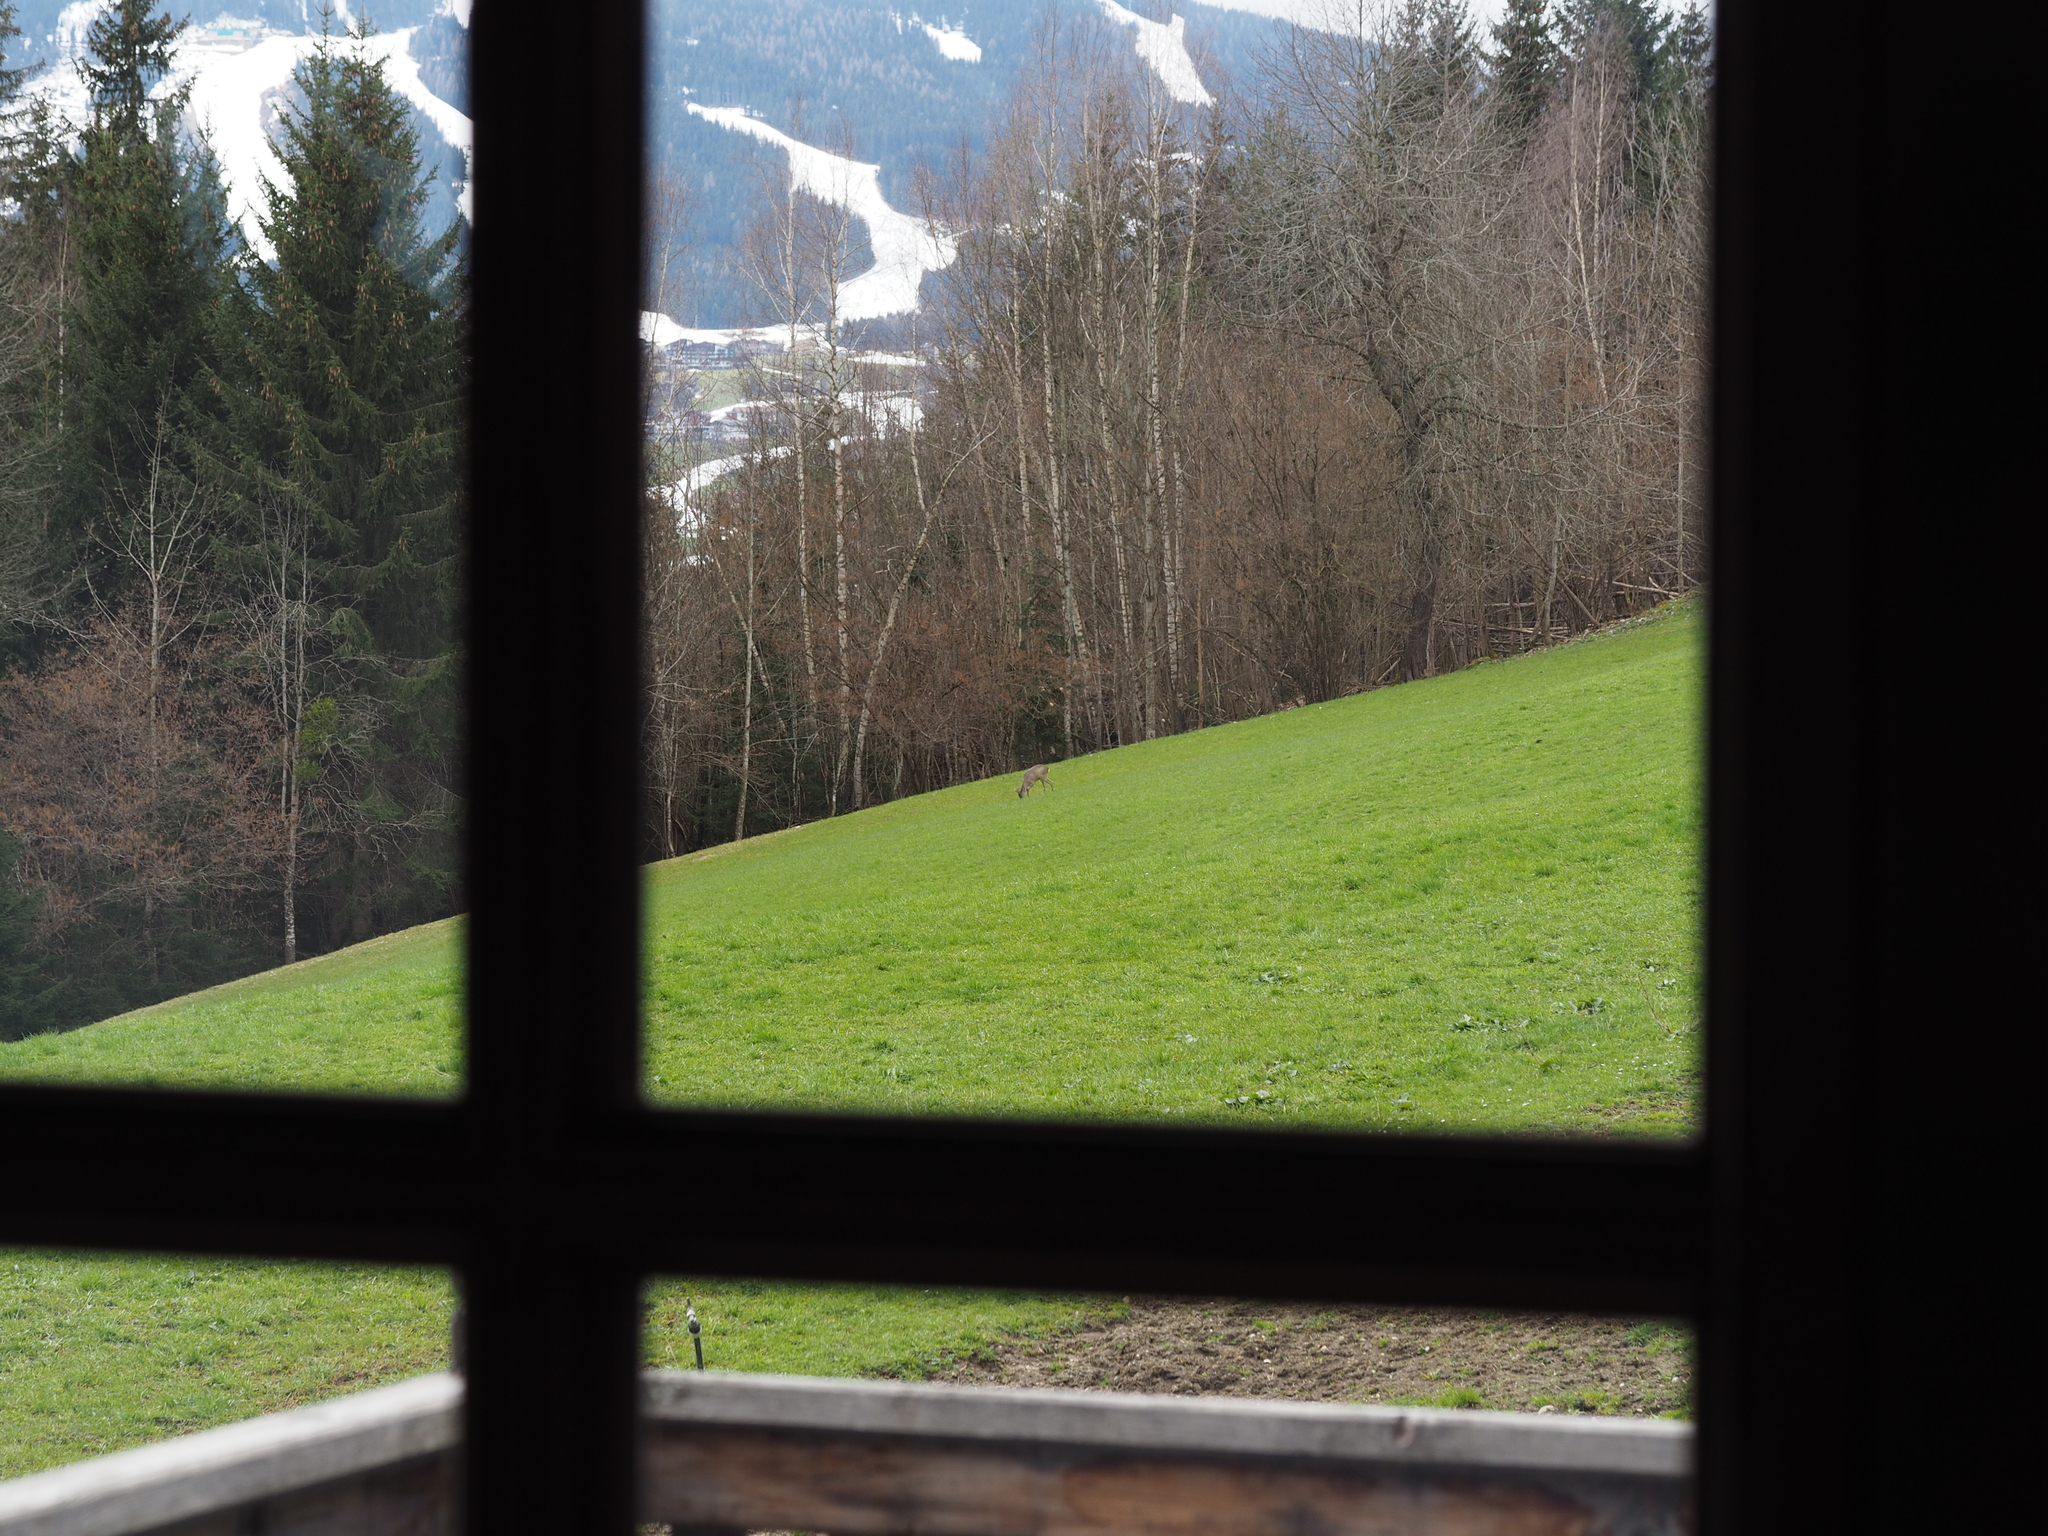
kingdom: Animalia
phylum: Chordata
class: Mammalia
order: Artiodactyla
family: Cervidae
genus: Capreolus
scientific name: Capreolus capreolus
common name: Western roe deer
